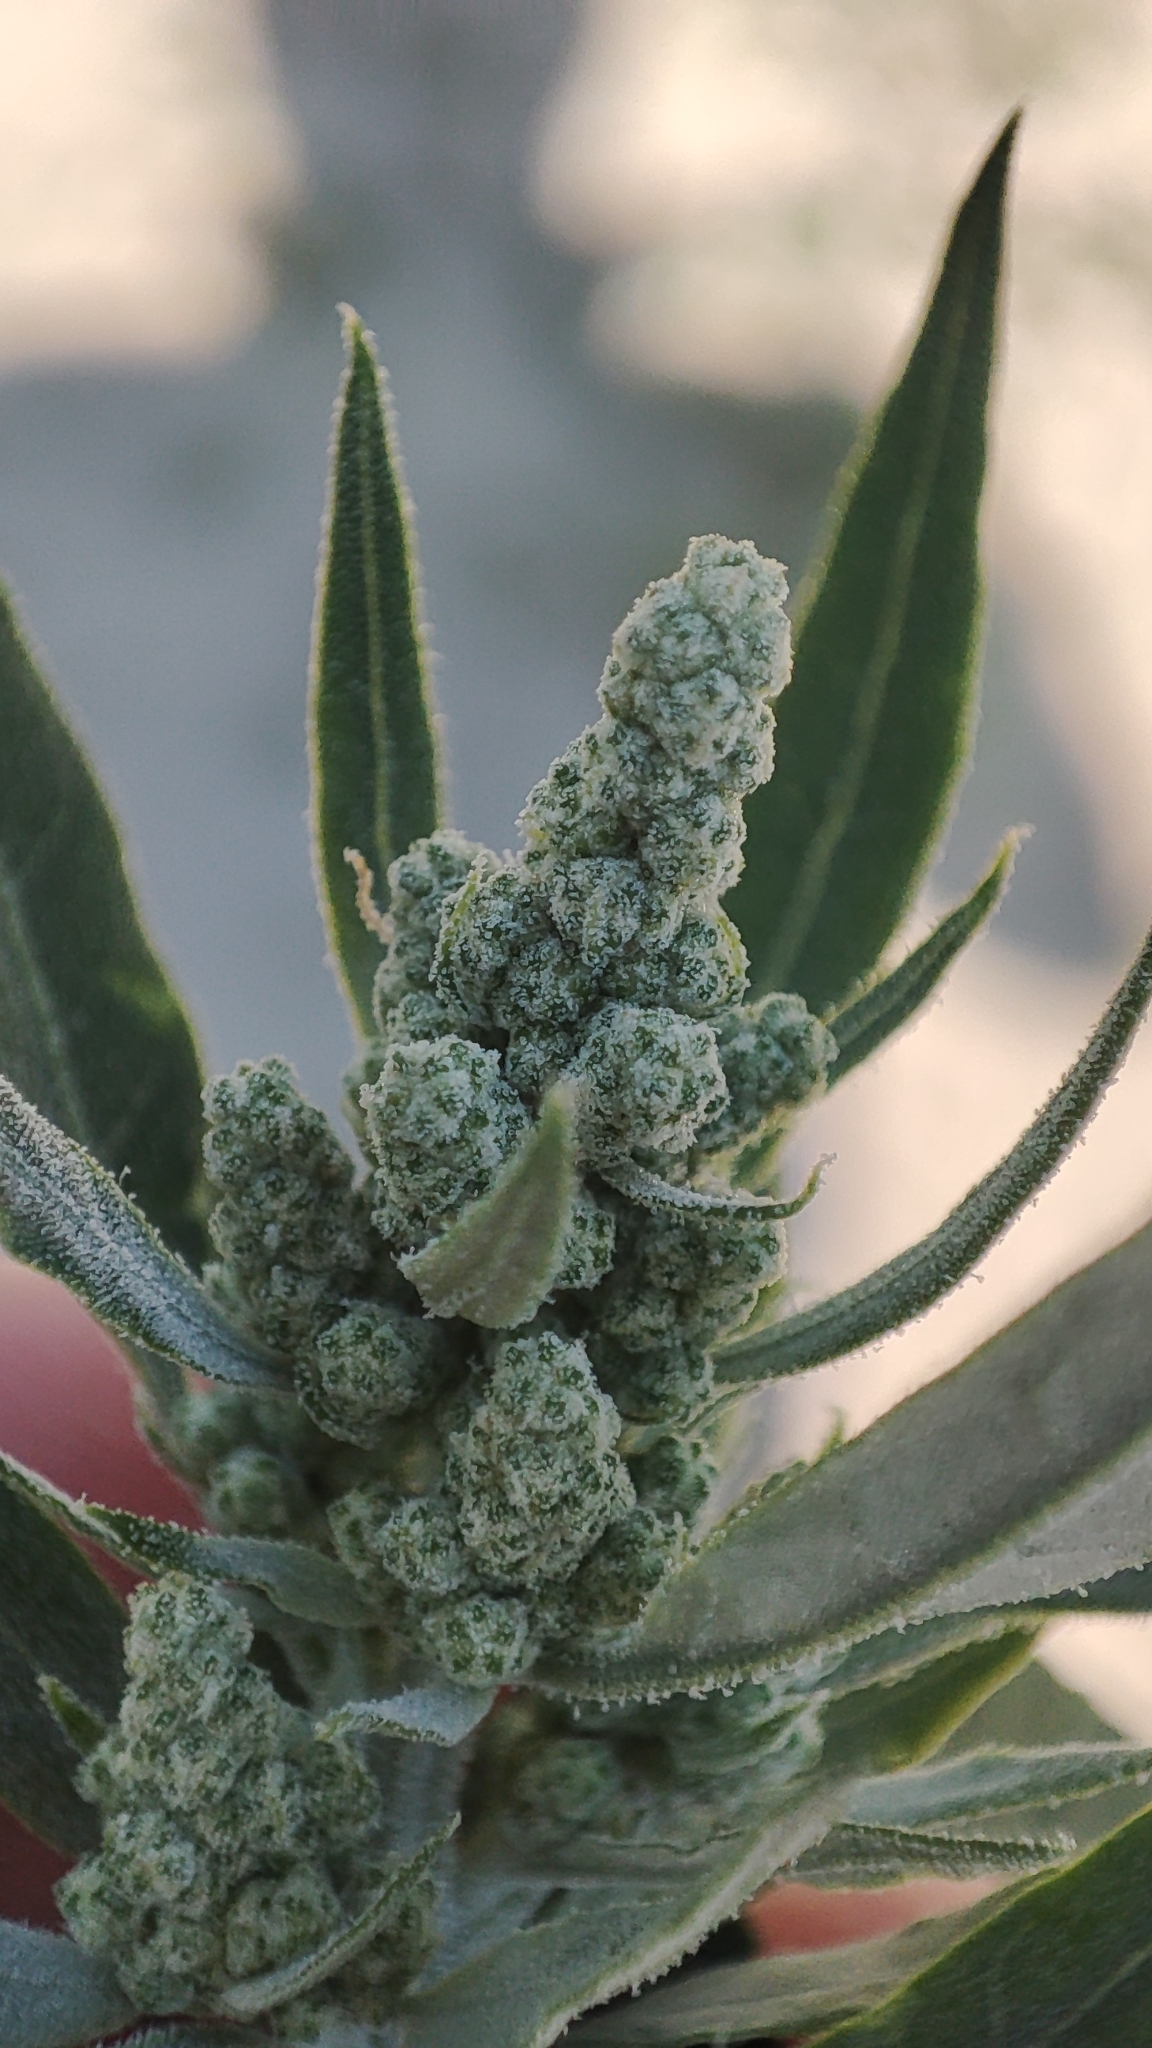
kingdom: Plantae
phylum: Tracheophyta
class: Magnoliopsida
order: Caryophyllales
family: Amaranthaceae
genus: Chenopodium
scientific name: Chenopodium album
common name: Fat-hen
